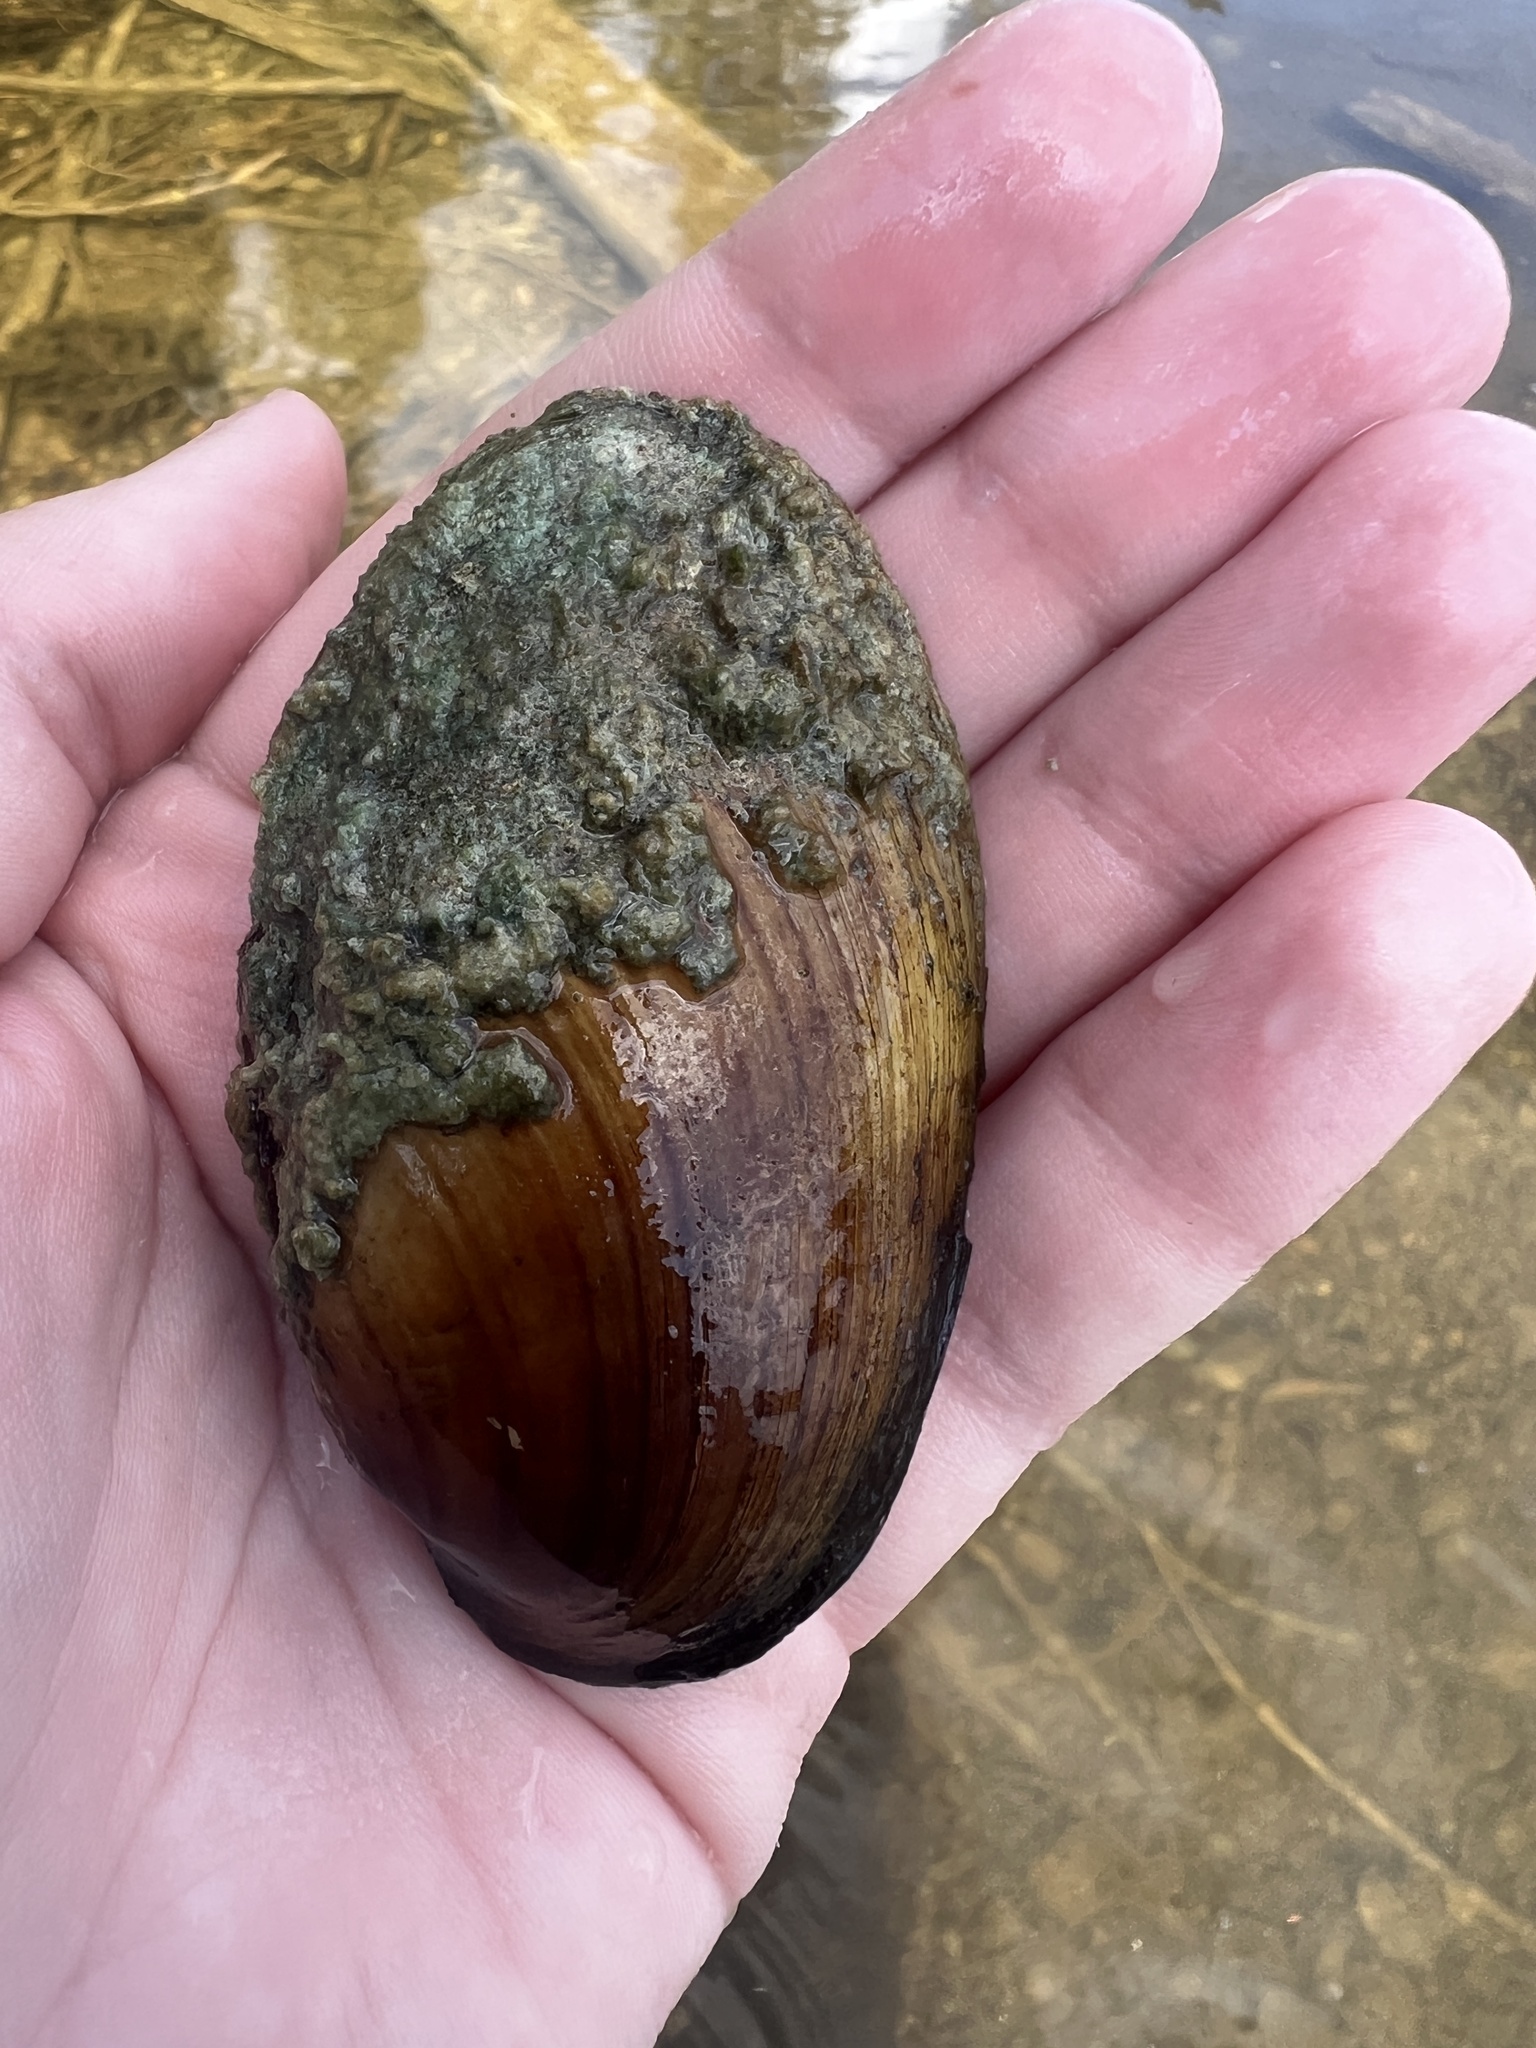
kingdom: Animalia
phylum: Mollusca
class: Bivalvia
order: Unionida
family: Unionidae
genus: Lampsilis
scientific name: Lampsilis siliquoidea
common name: Fatmucket
